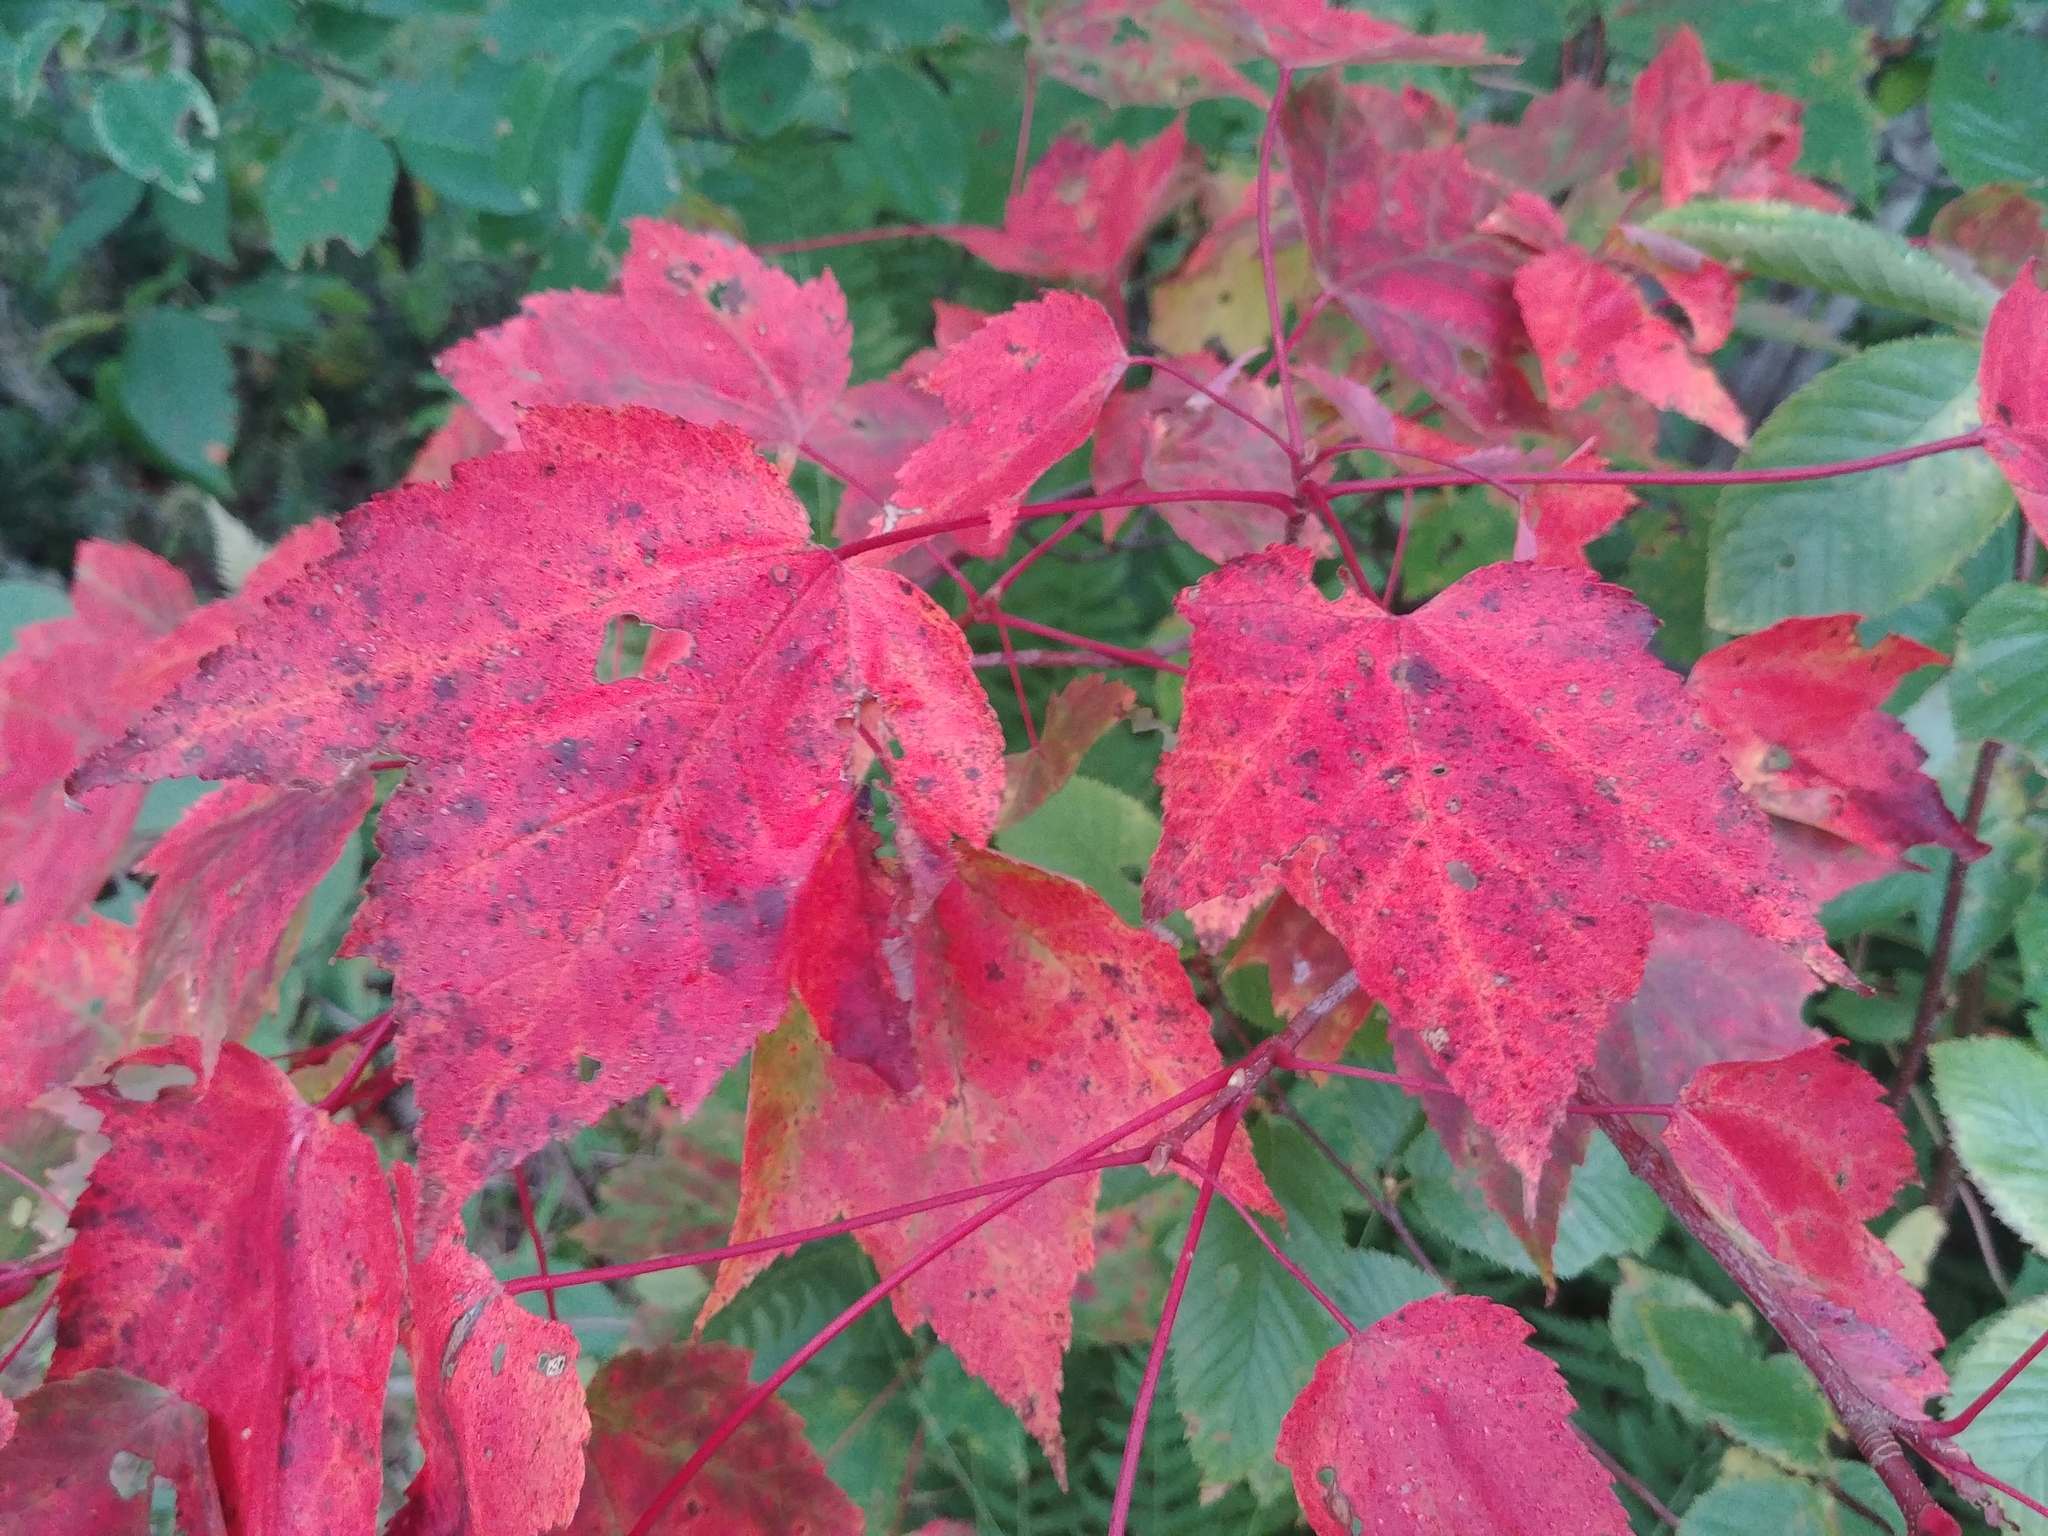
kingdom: Plantae
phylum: Tracheophyta
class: Magnoliopsida
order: Sapindales
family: Sapindaceae
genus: Acer
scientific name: Acer rubrum
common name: Red maple
